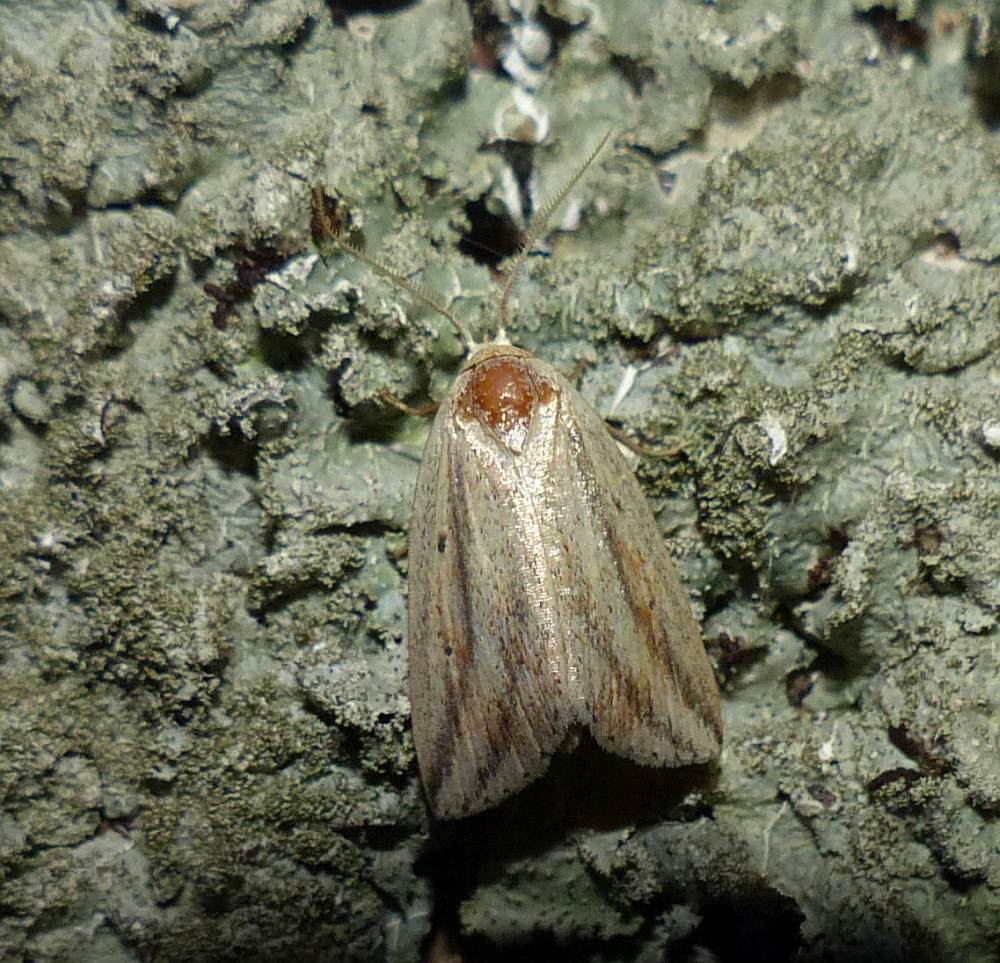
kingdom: Animalia
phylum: Arthropoda
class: Insecta
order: Lepidoptera
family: Noctuidae
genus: Amolita
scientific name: Amolita fessa
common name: Feeble grass moth
